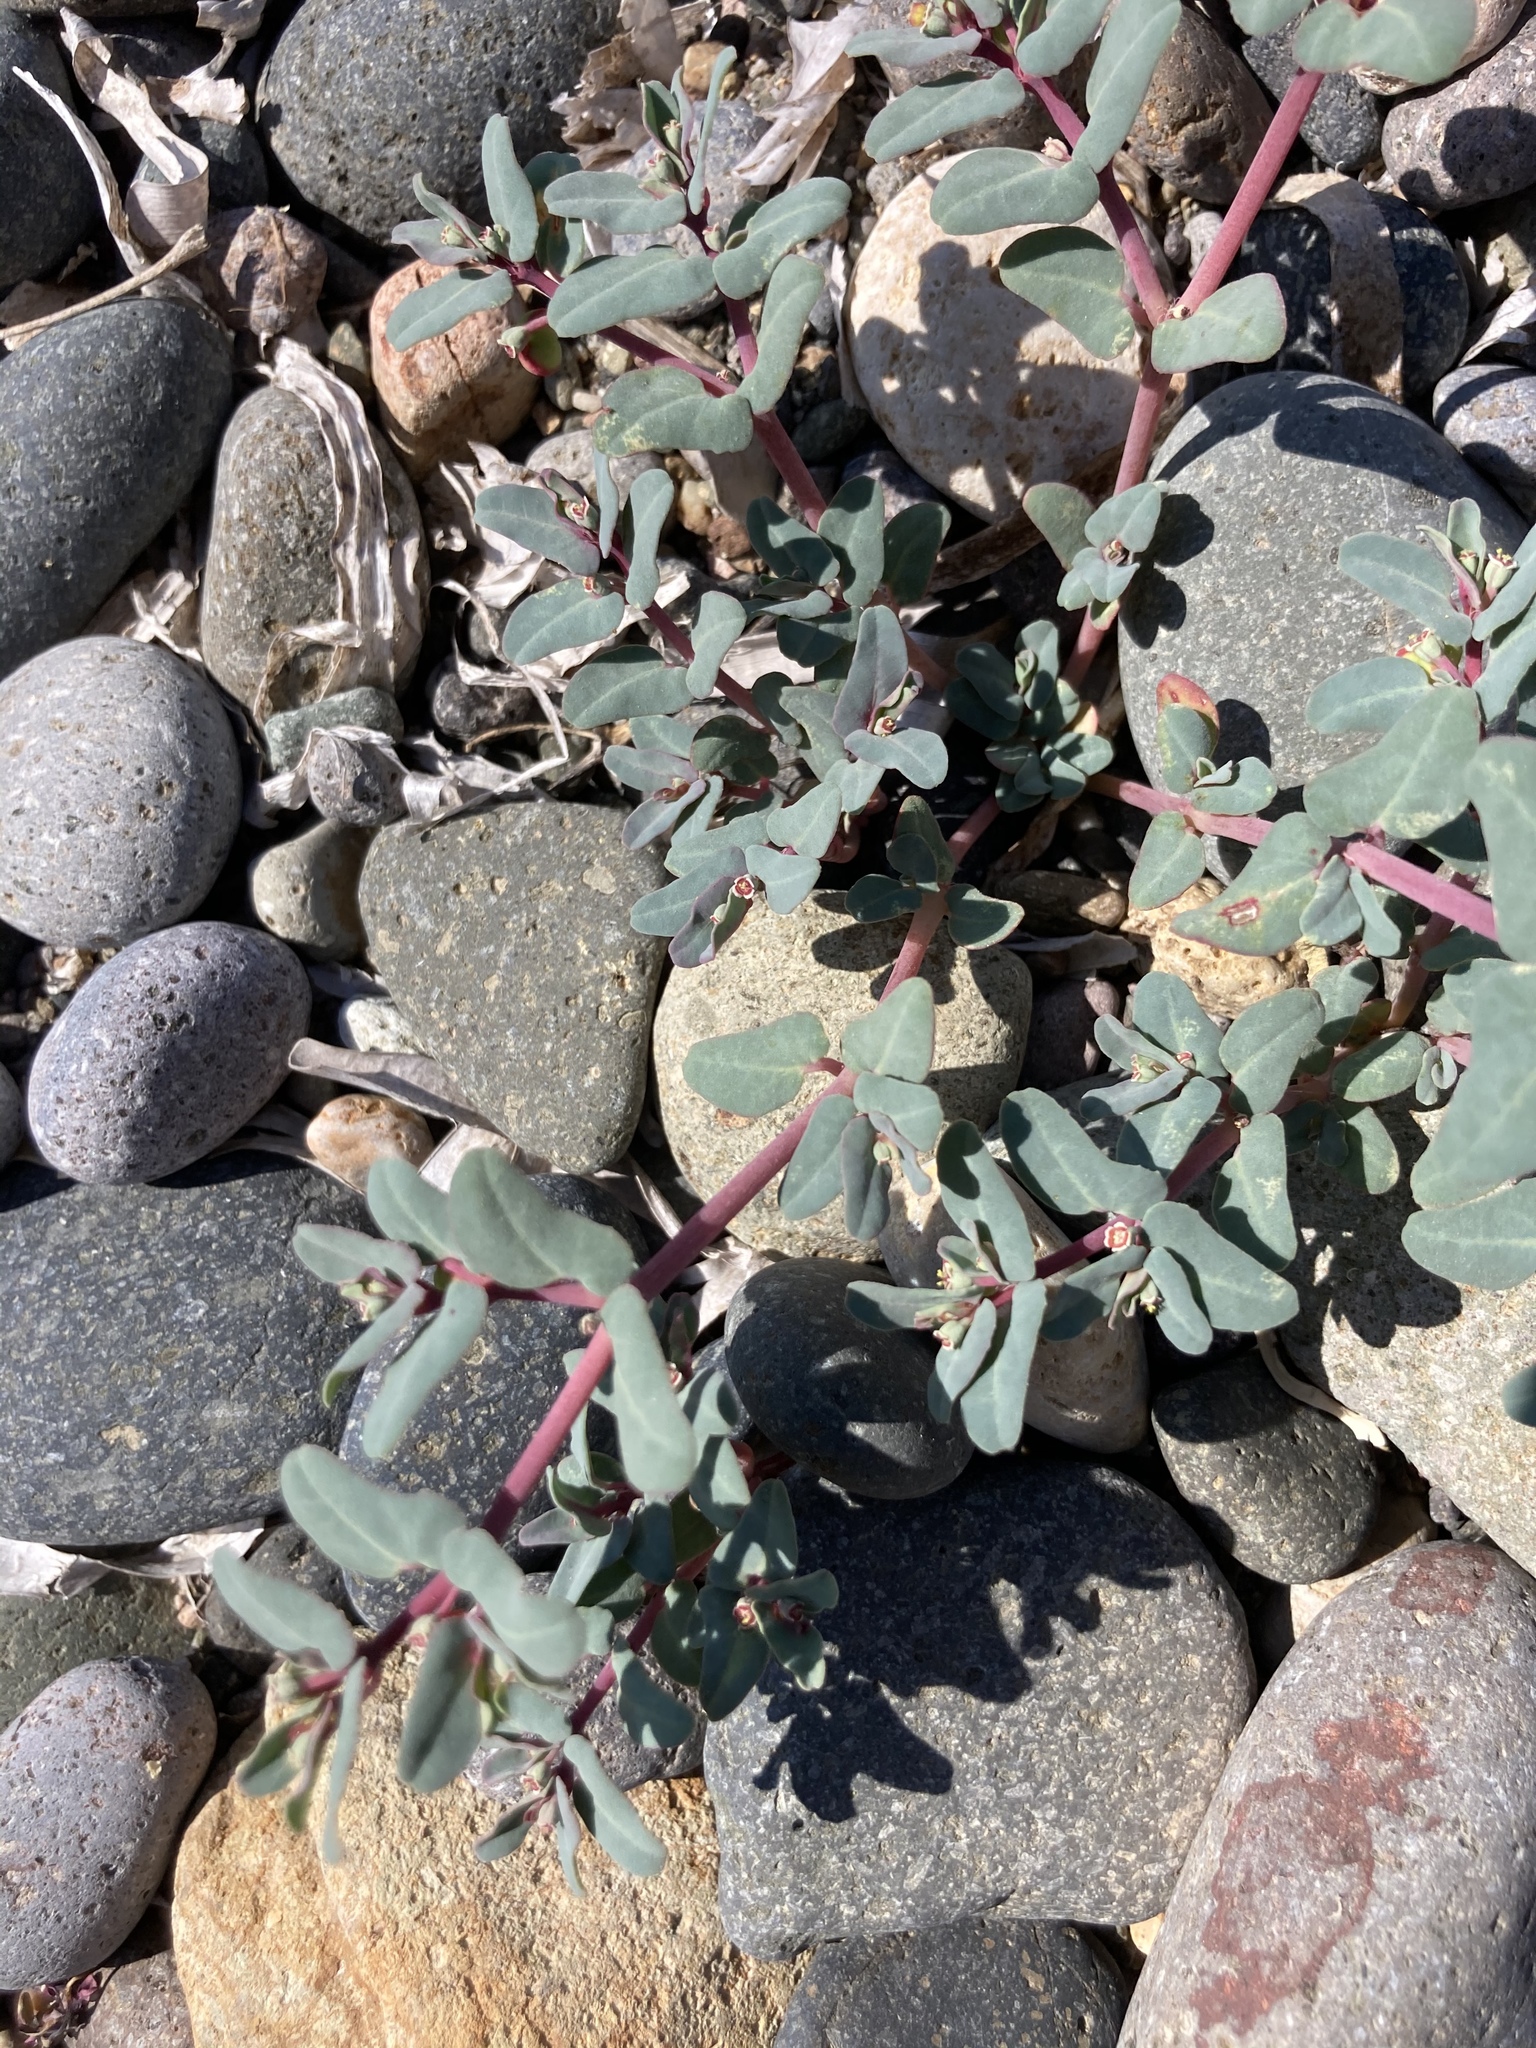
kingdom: Plantae
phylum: Tracheophyta
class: Magnoliopsida
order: Malpighiales
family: Euphorbiaceae
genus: Euphorbia
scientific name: Euphorbia peplis
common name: Purple spurge
